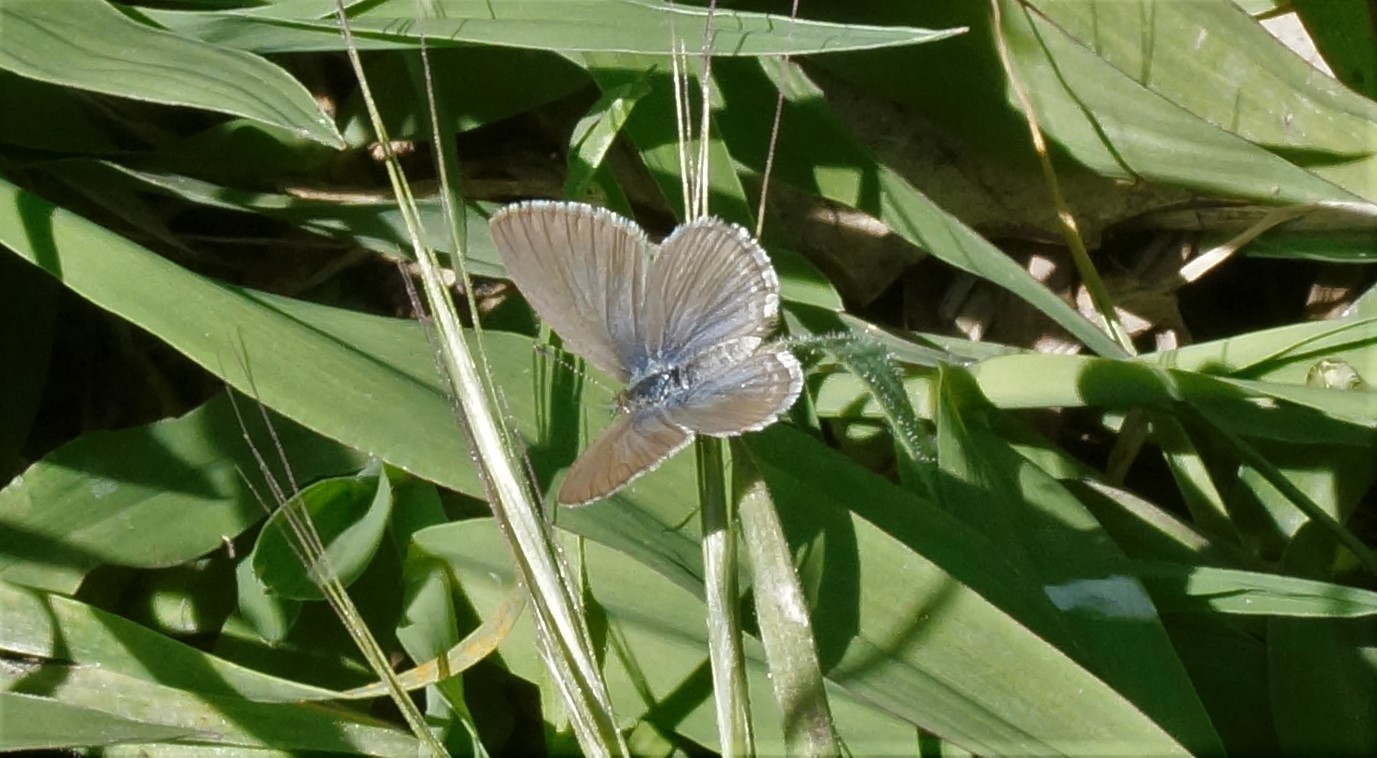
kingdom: Animalia
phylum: Arthropoda
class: Insecta
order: Lepidoptera
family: Lycaenidae
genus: Zizina
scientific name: Zizina labradus
